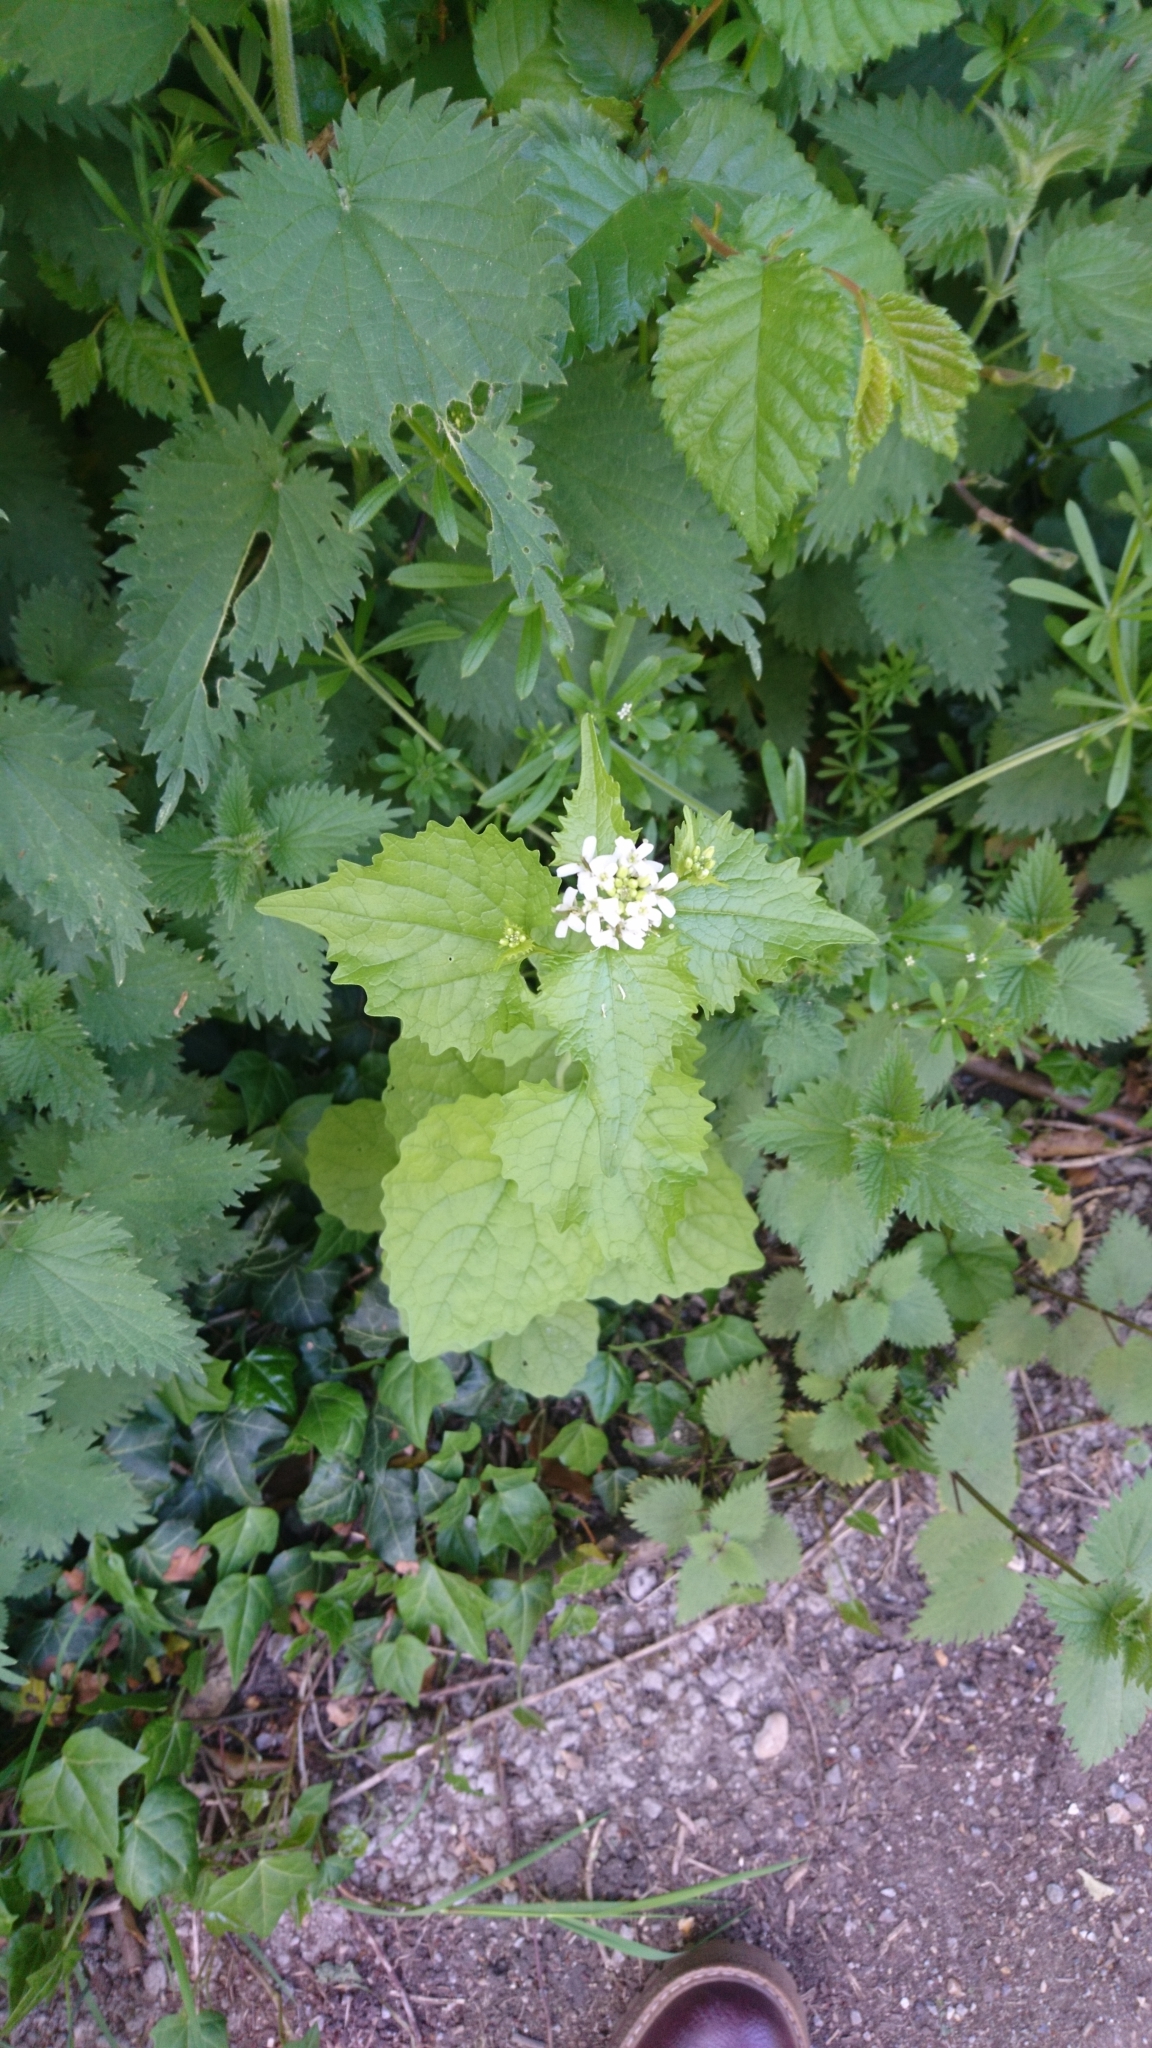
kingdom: Plantae
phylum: Tracheophyta
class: Magnoliopsida
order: Brassicales
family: Brassicaceae
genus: Alliaria
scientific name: Alliaria petiolata
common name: Garlic mustard
